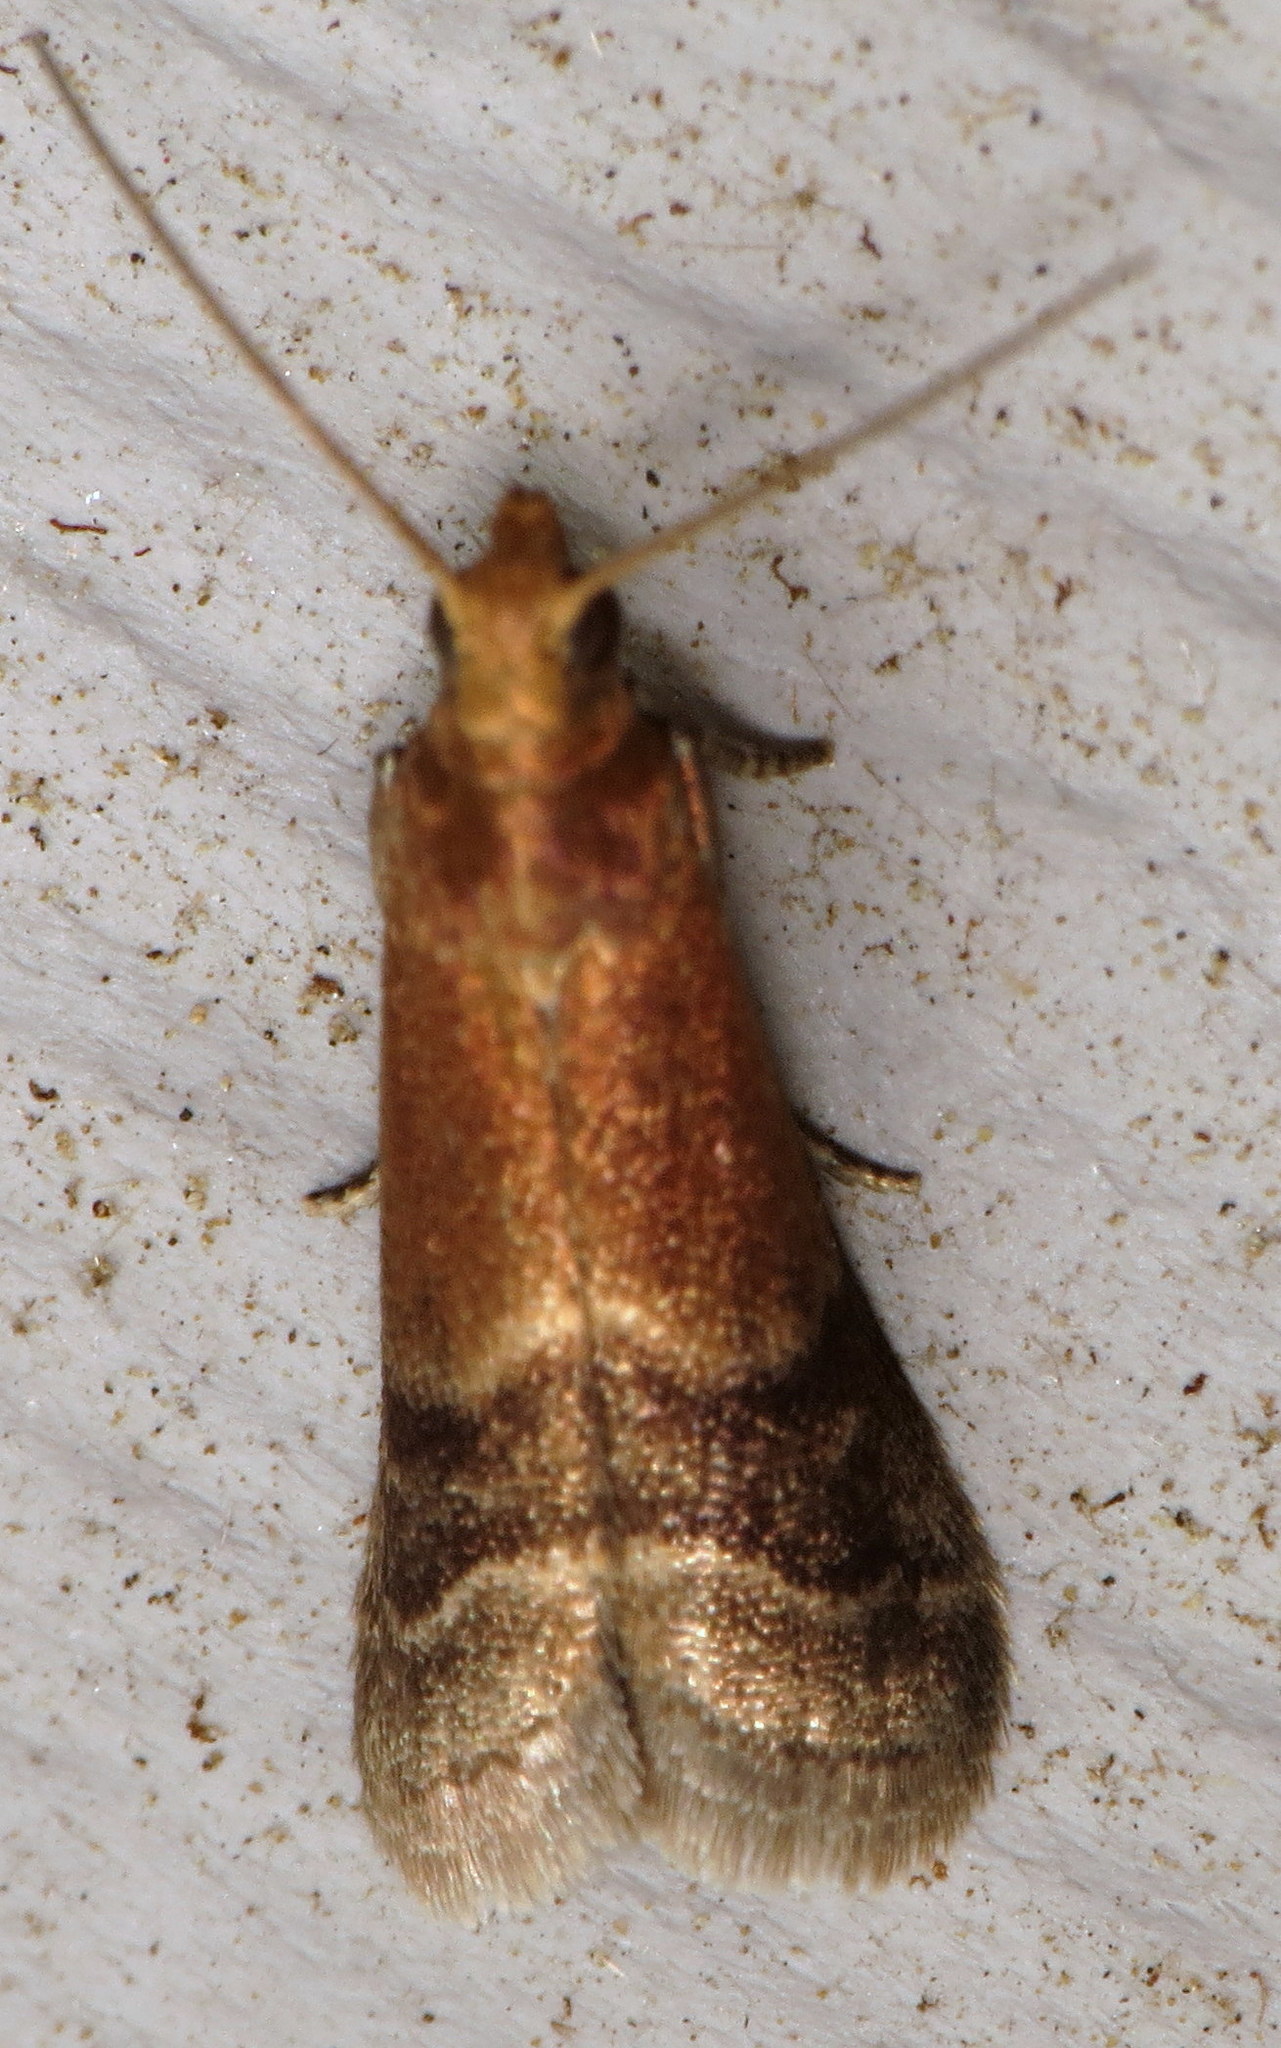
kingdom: Animalia
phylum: Arthropoda
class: Insecta
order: Lepidoptera
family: Pyralidae
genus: Eulogia
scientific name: Eulogia ochrifrontella
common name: Broad-banded eulogia moth
